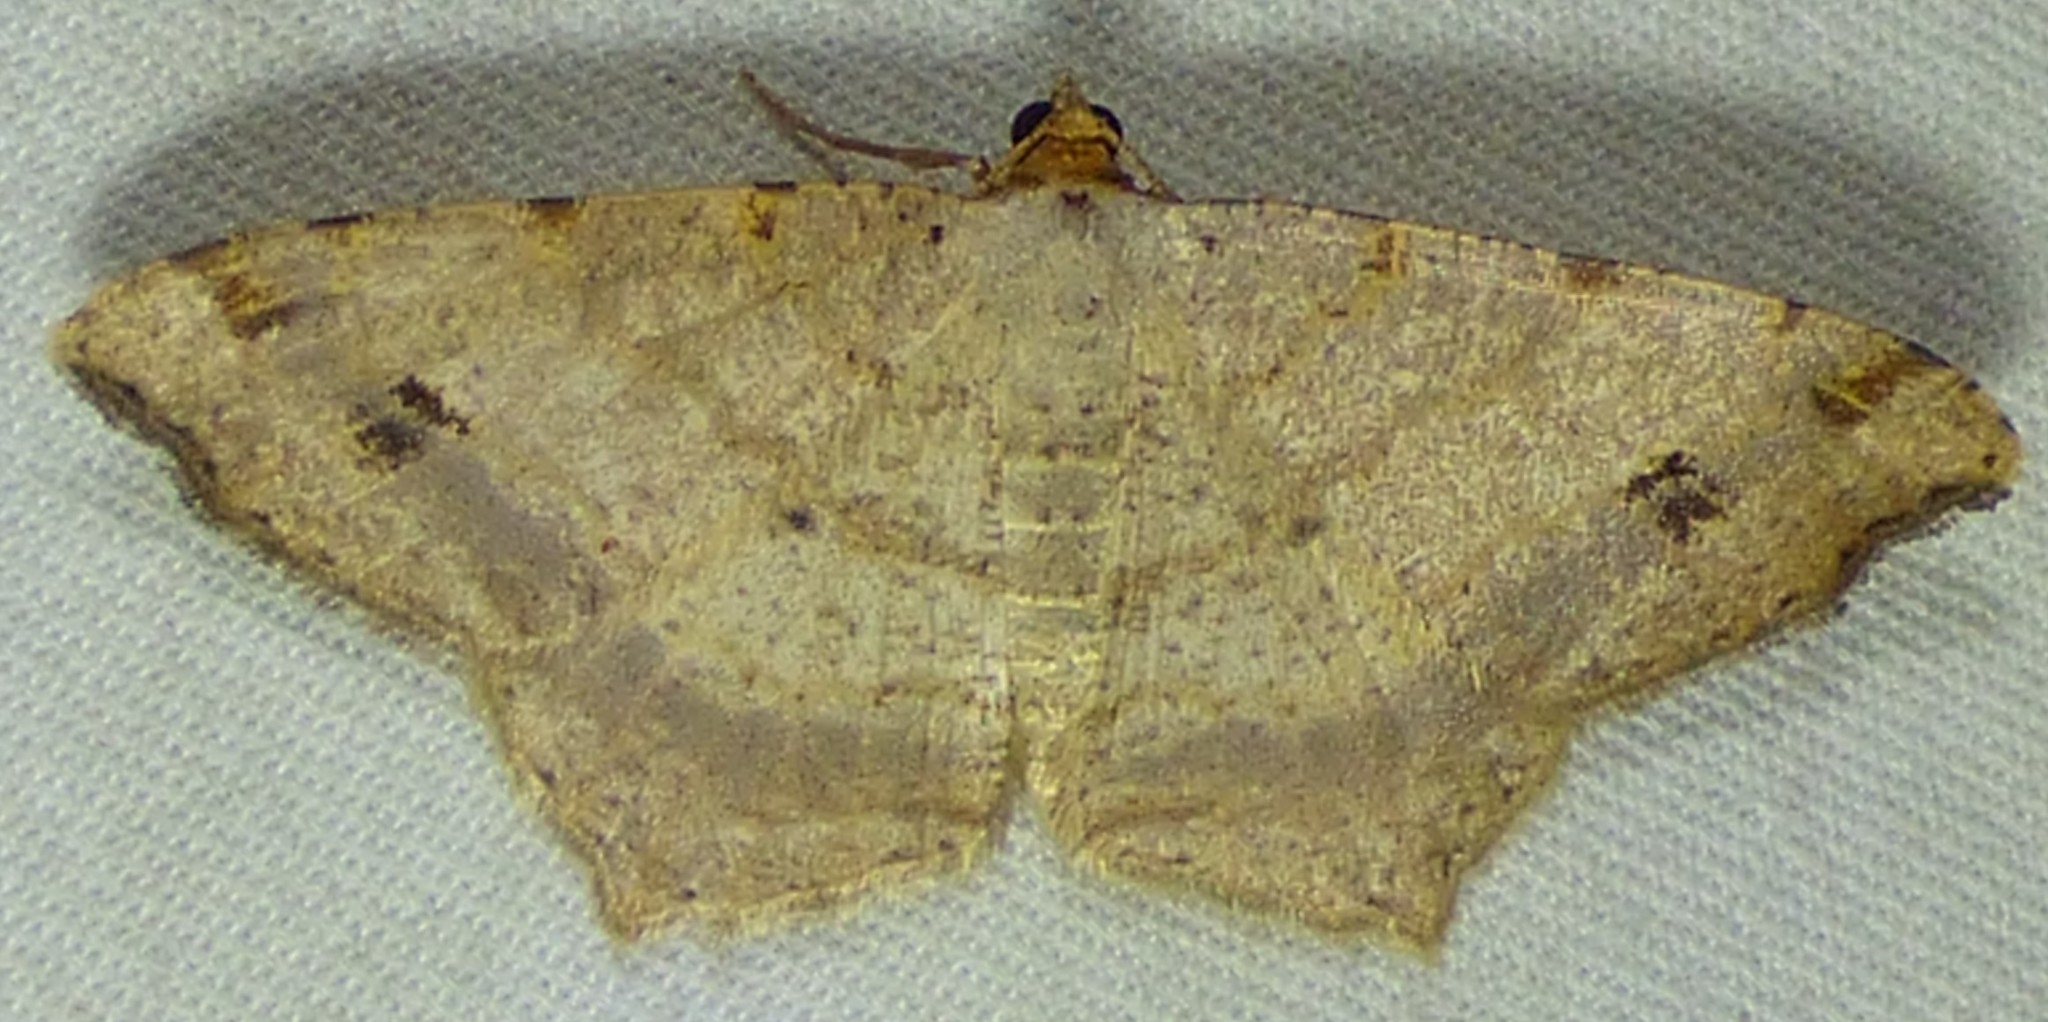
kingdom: Animalia
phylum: Arthropoda
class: Insecta
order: Lepidoptera
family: Geometridae
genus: Macaria
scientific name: Macaria aemulataria
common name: Common angle
